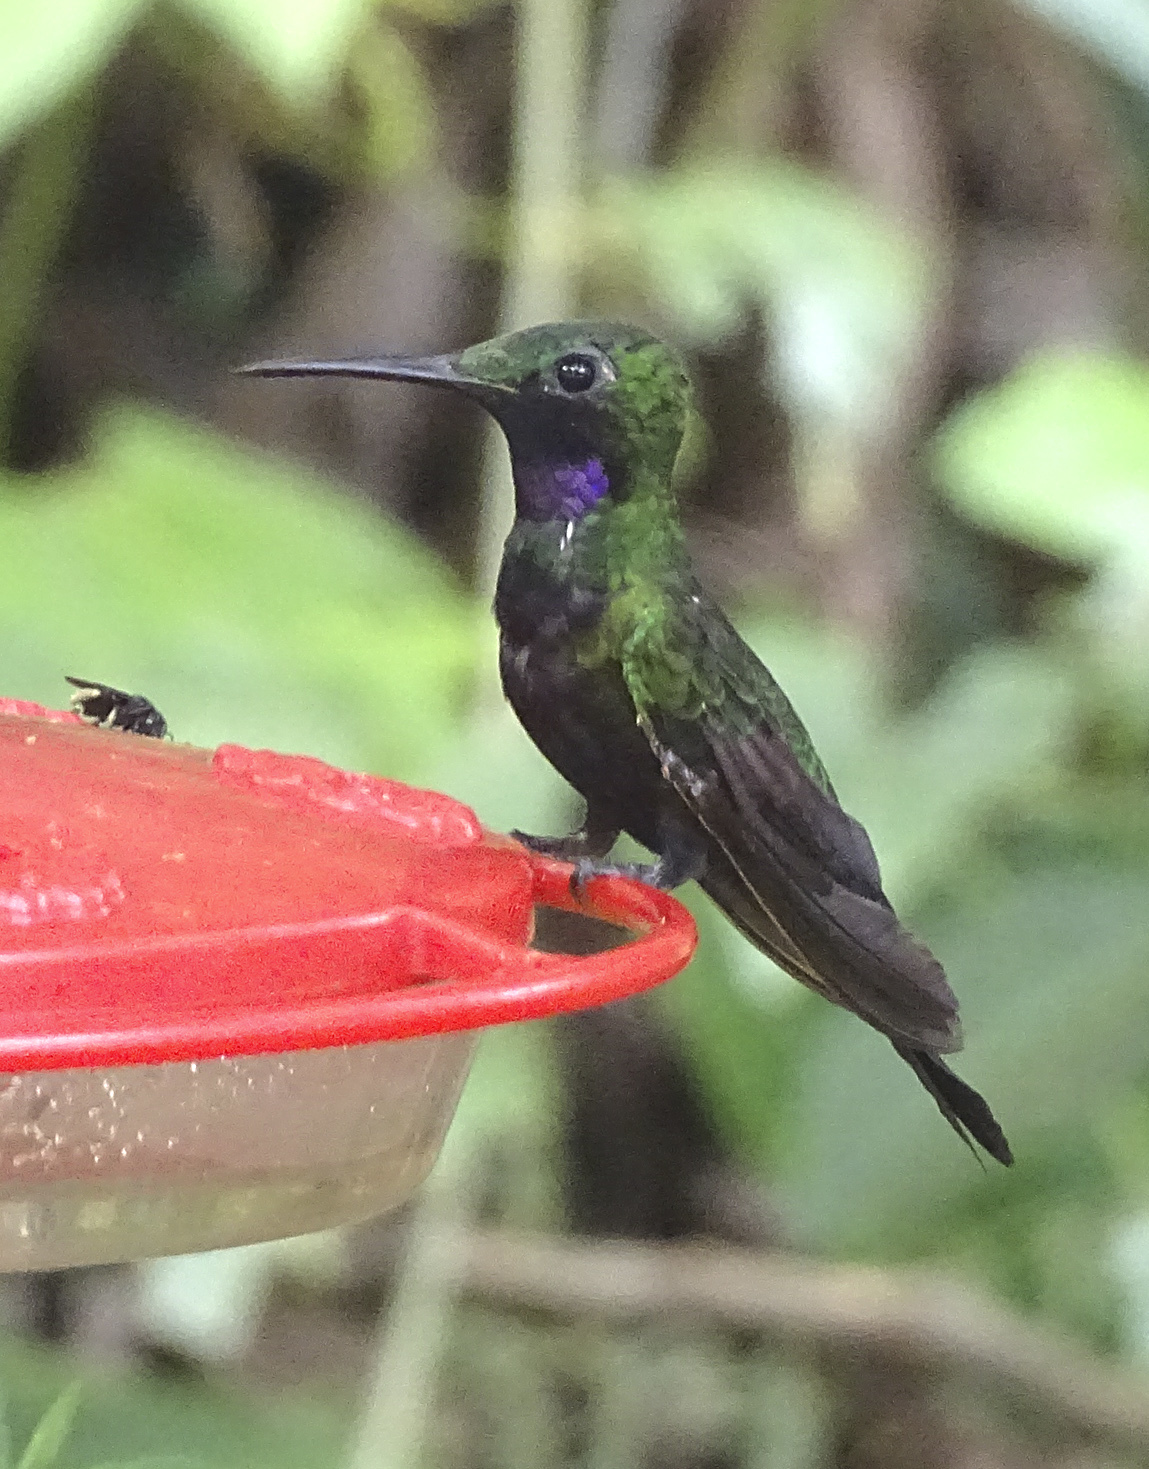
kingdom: Animalia
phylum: Chordata
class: Aves
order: Apodiformes
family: Trochilidae
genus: Heliodoxa
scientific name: Heliodoxa schreibersii
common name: Black-throated brilliant
